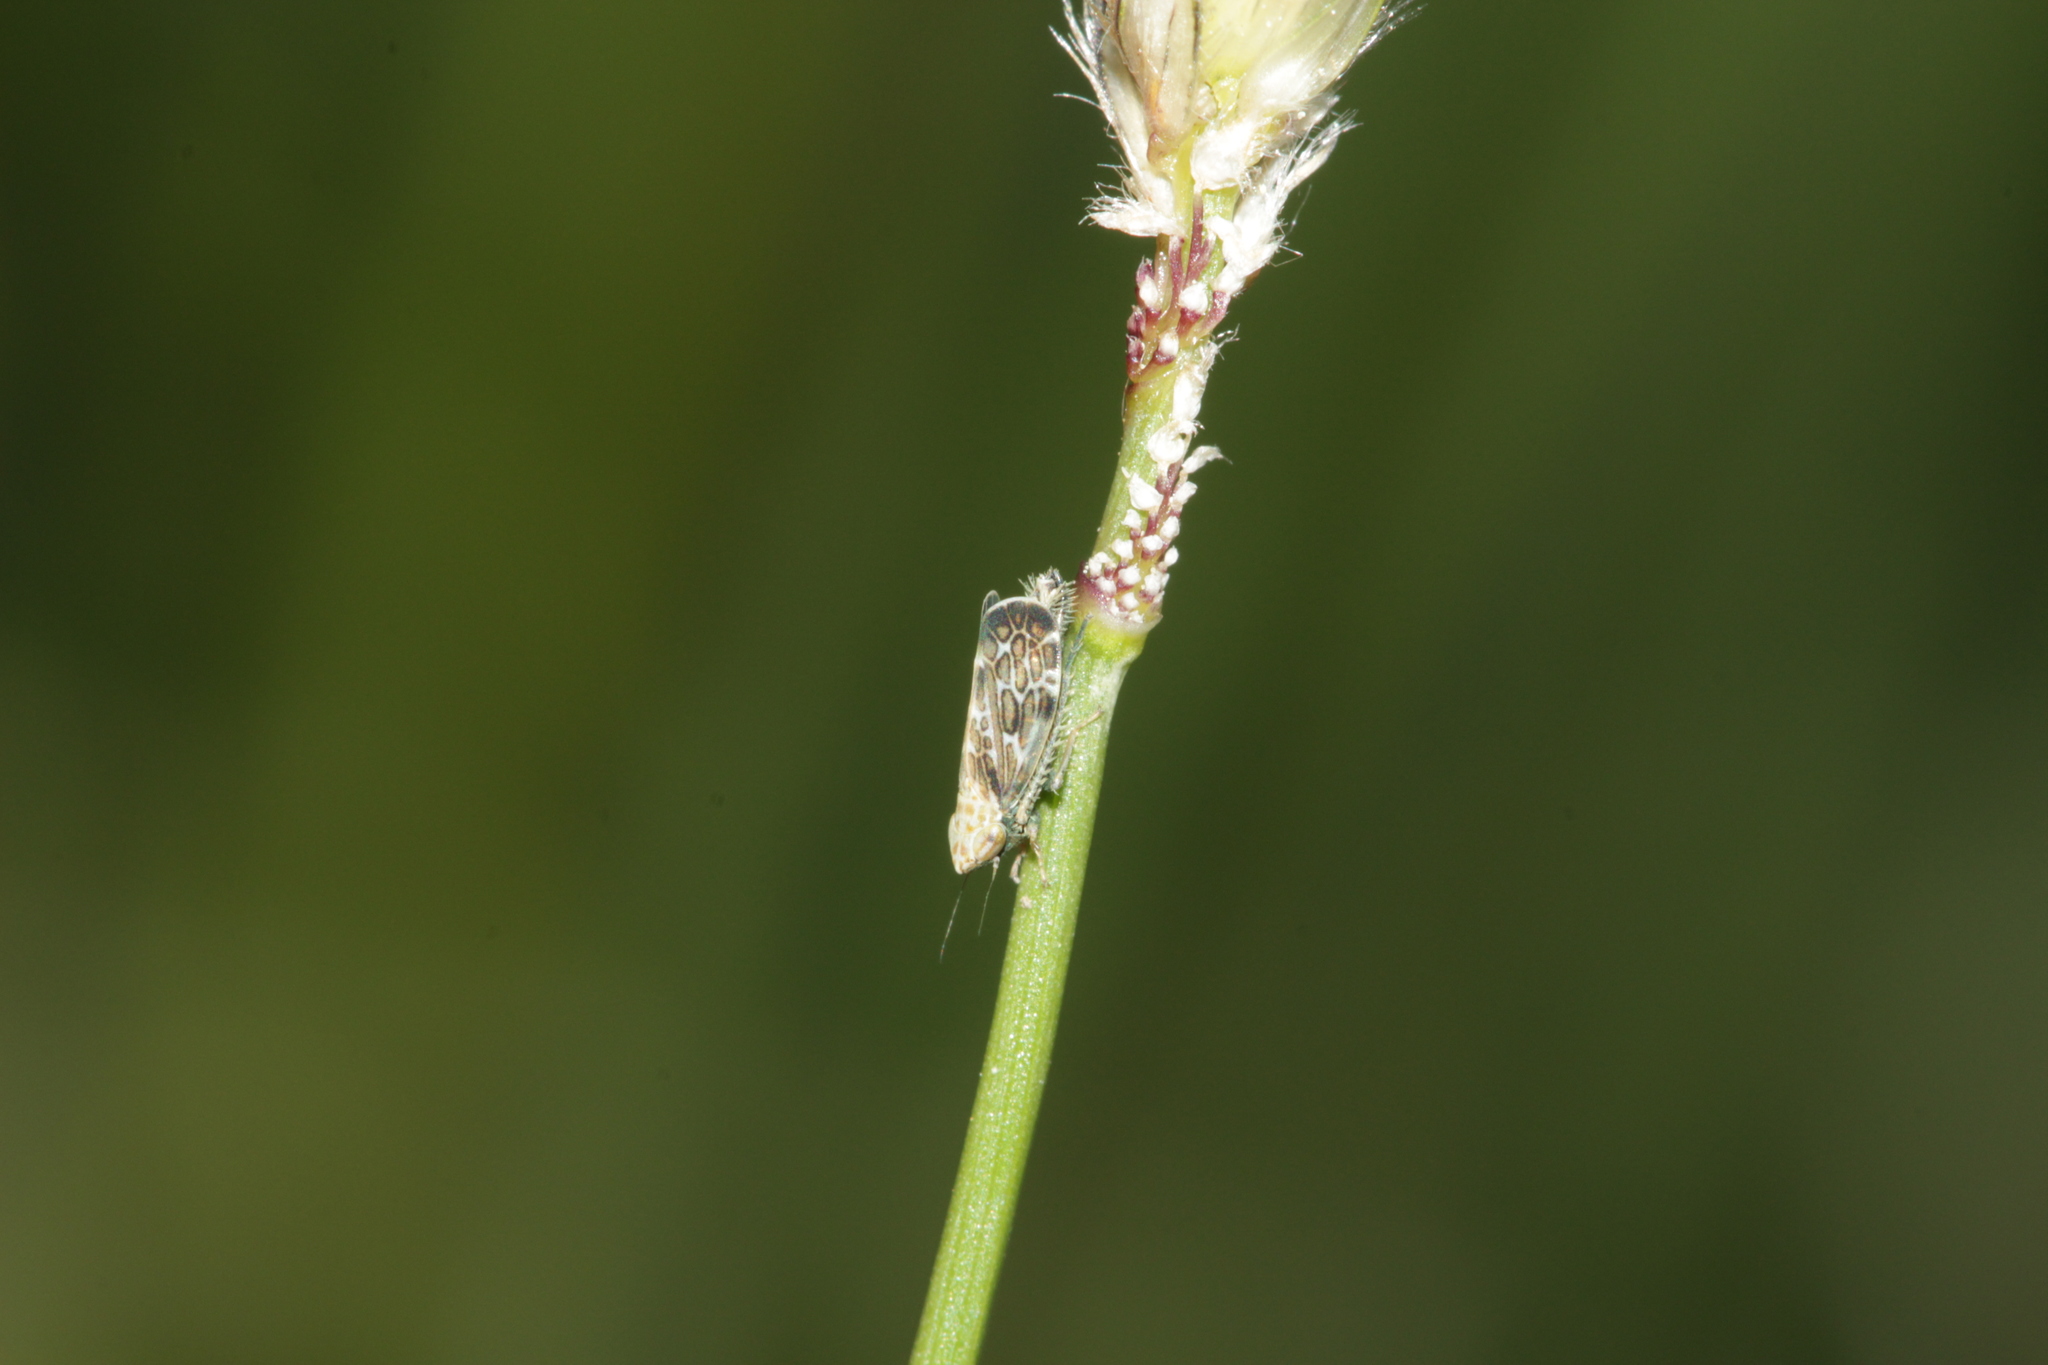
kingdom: Animalia
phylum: Arthropoda
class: Insecta
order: Hemiptera
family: Cicadellidae
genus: Errastunus
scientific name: Errastunus ocellaris
